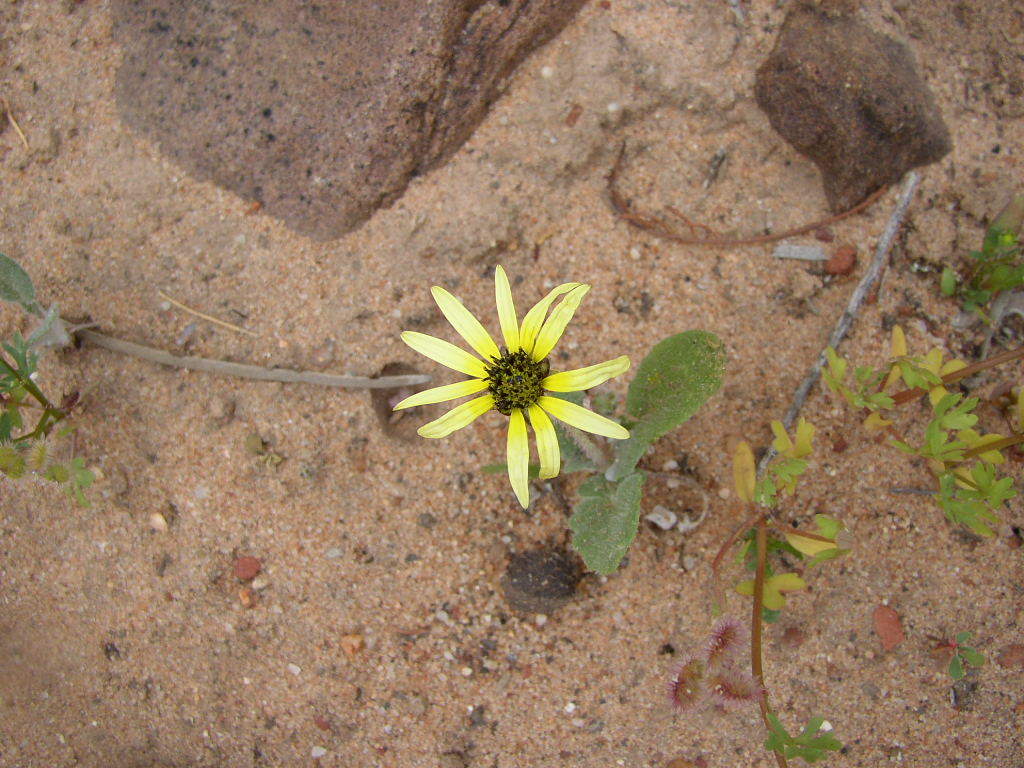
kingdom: Plantae
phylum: Tracheophyta
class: Magnoliopsida
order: Asterales
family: Asteraceae
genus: Arctotheca
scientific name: Arctotheca calendula
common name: Capeweed
